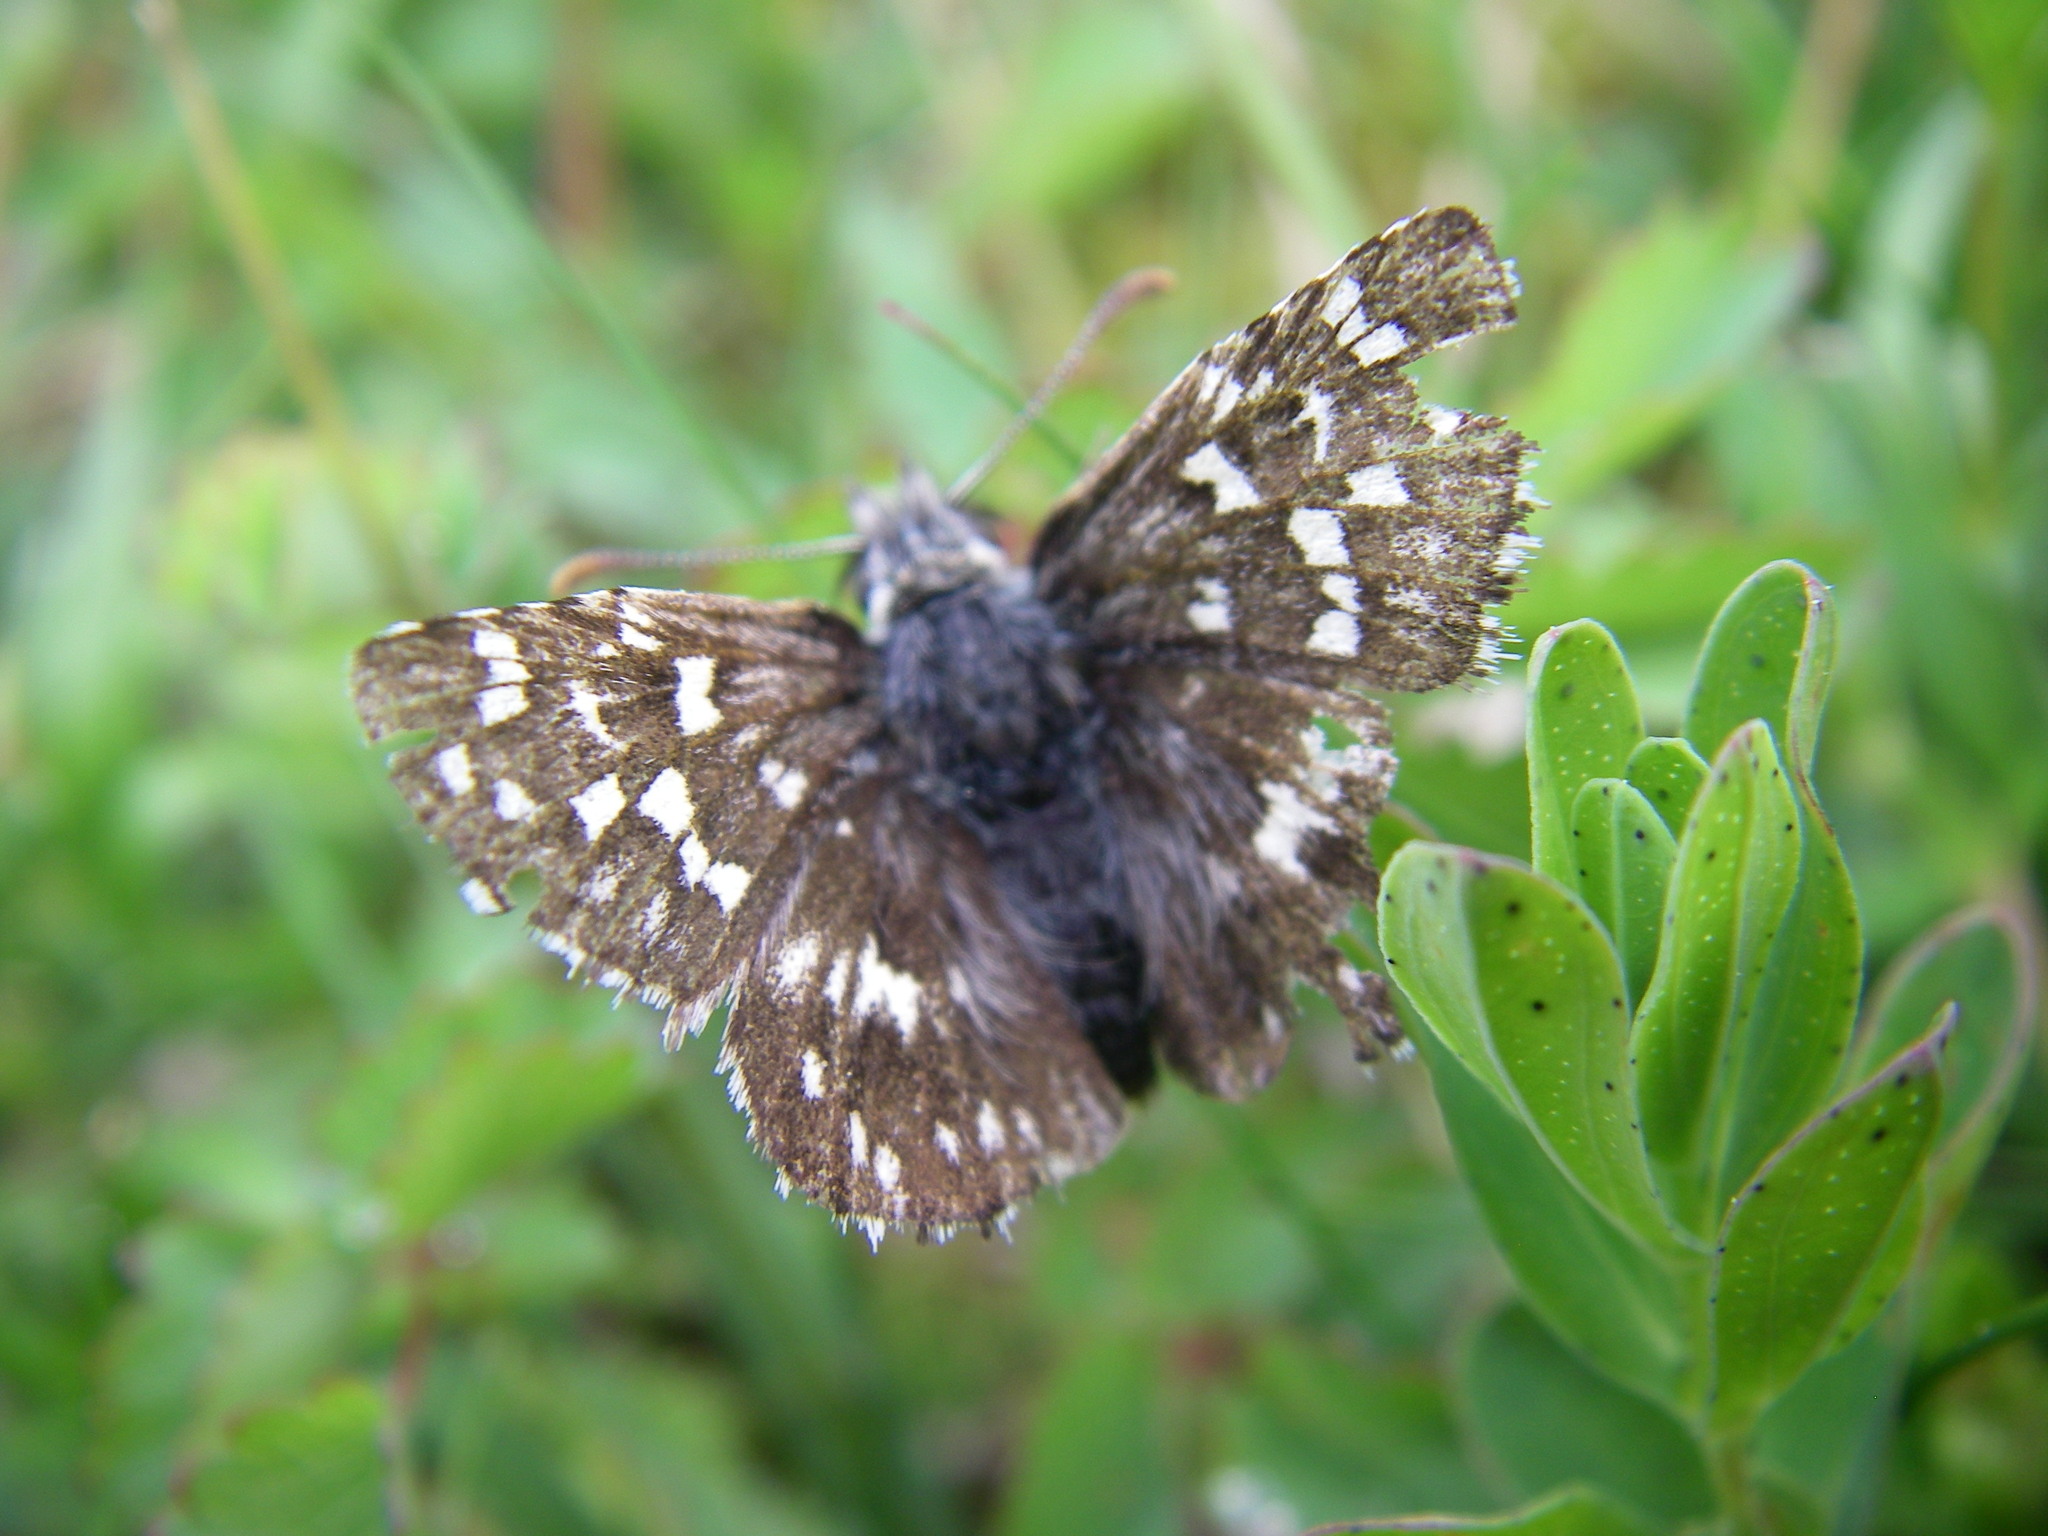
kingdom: Animalia
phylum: Arthropoda
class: Insecta
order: Lepidoptera
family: Hesperiidae
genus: Pyrgus
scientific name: Pyrgus malvae
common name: Grizzled skipper
